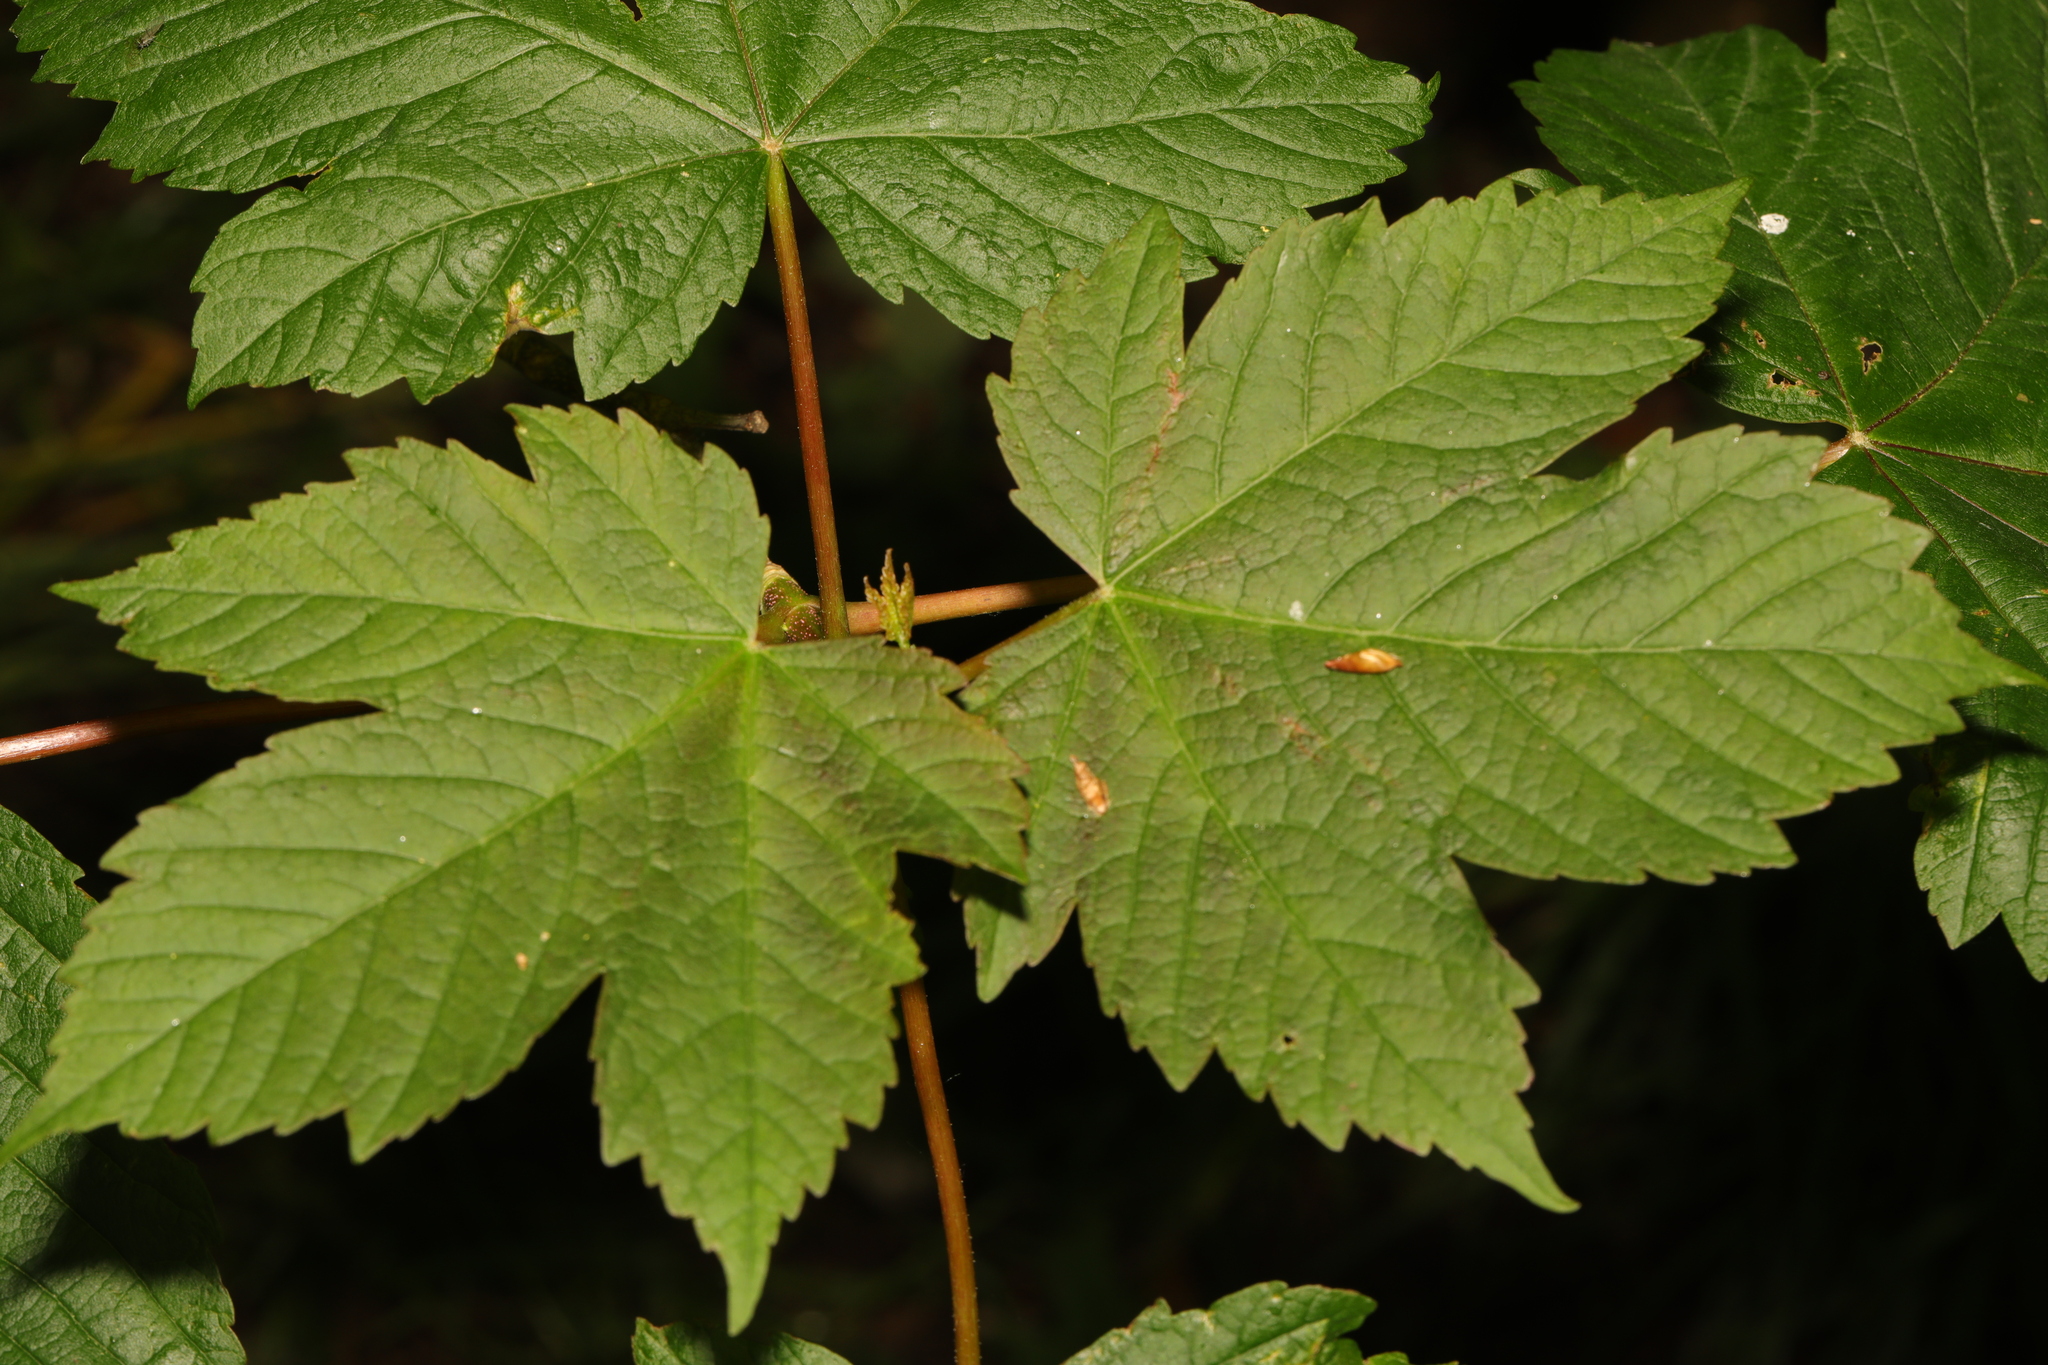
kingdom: Plantae
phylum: Tracheophyta
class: Magnoliopsida
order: Sapindales
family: Sapindaceae
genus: Acer
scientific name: Acer pseudoplatanus
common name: Sycamore
